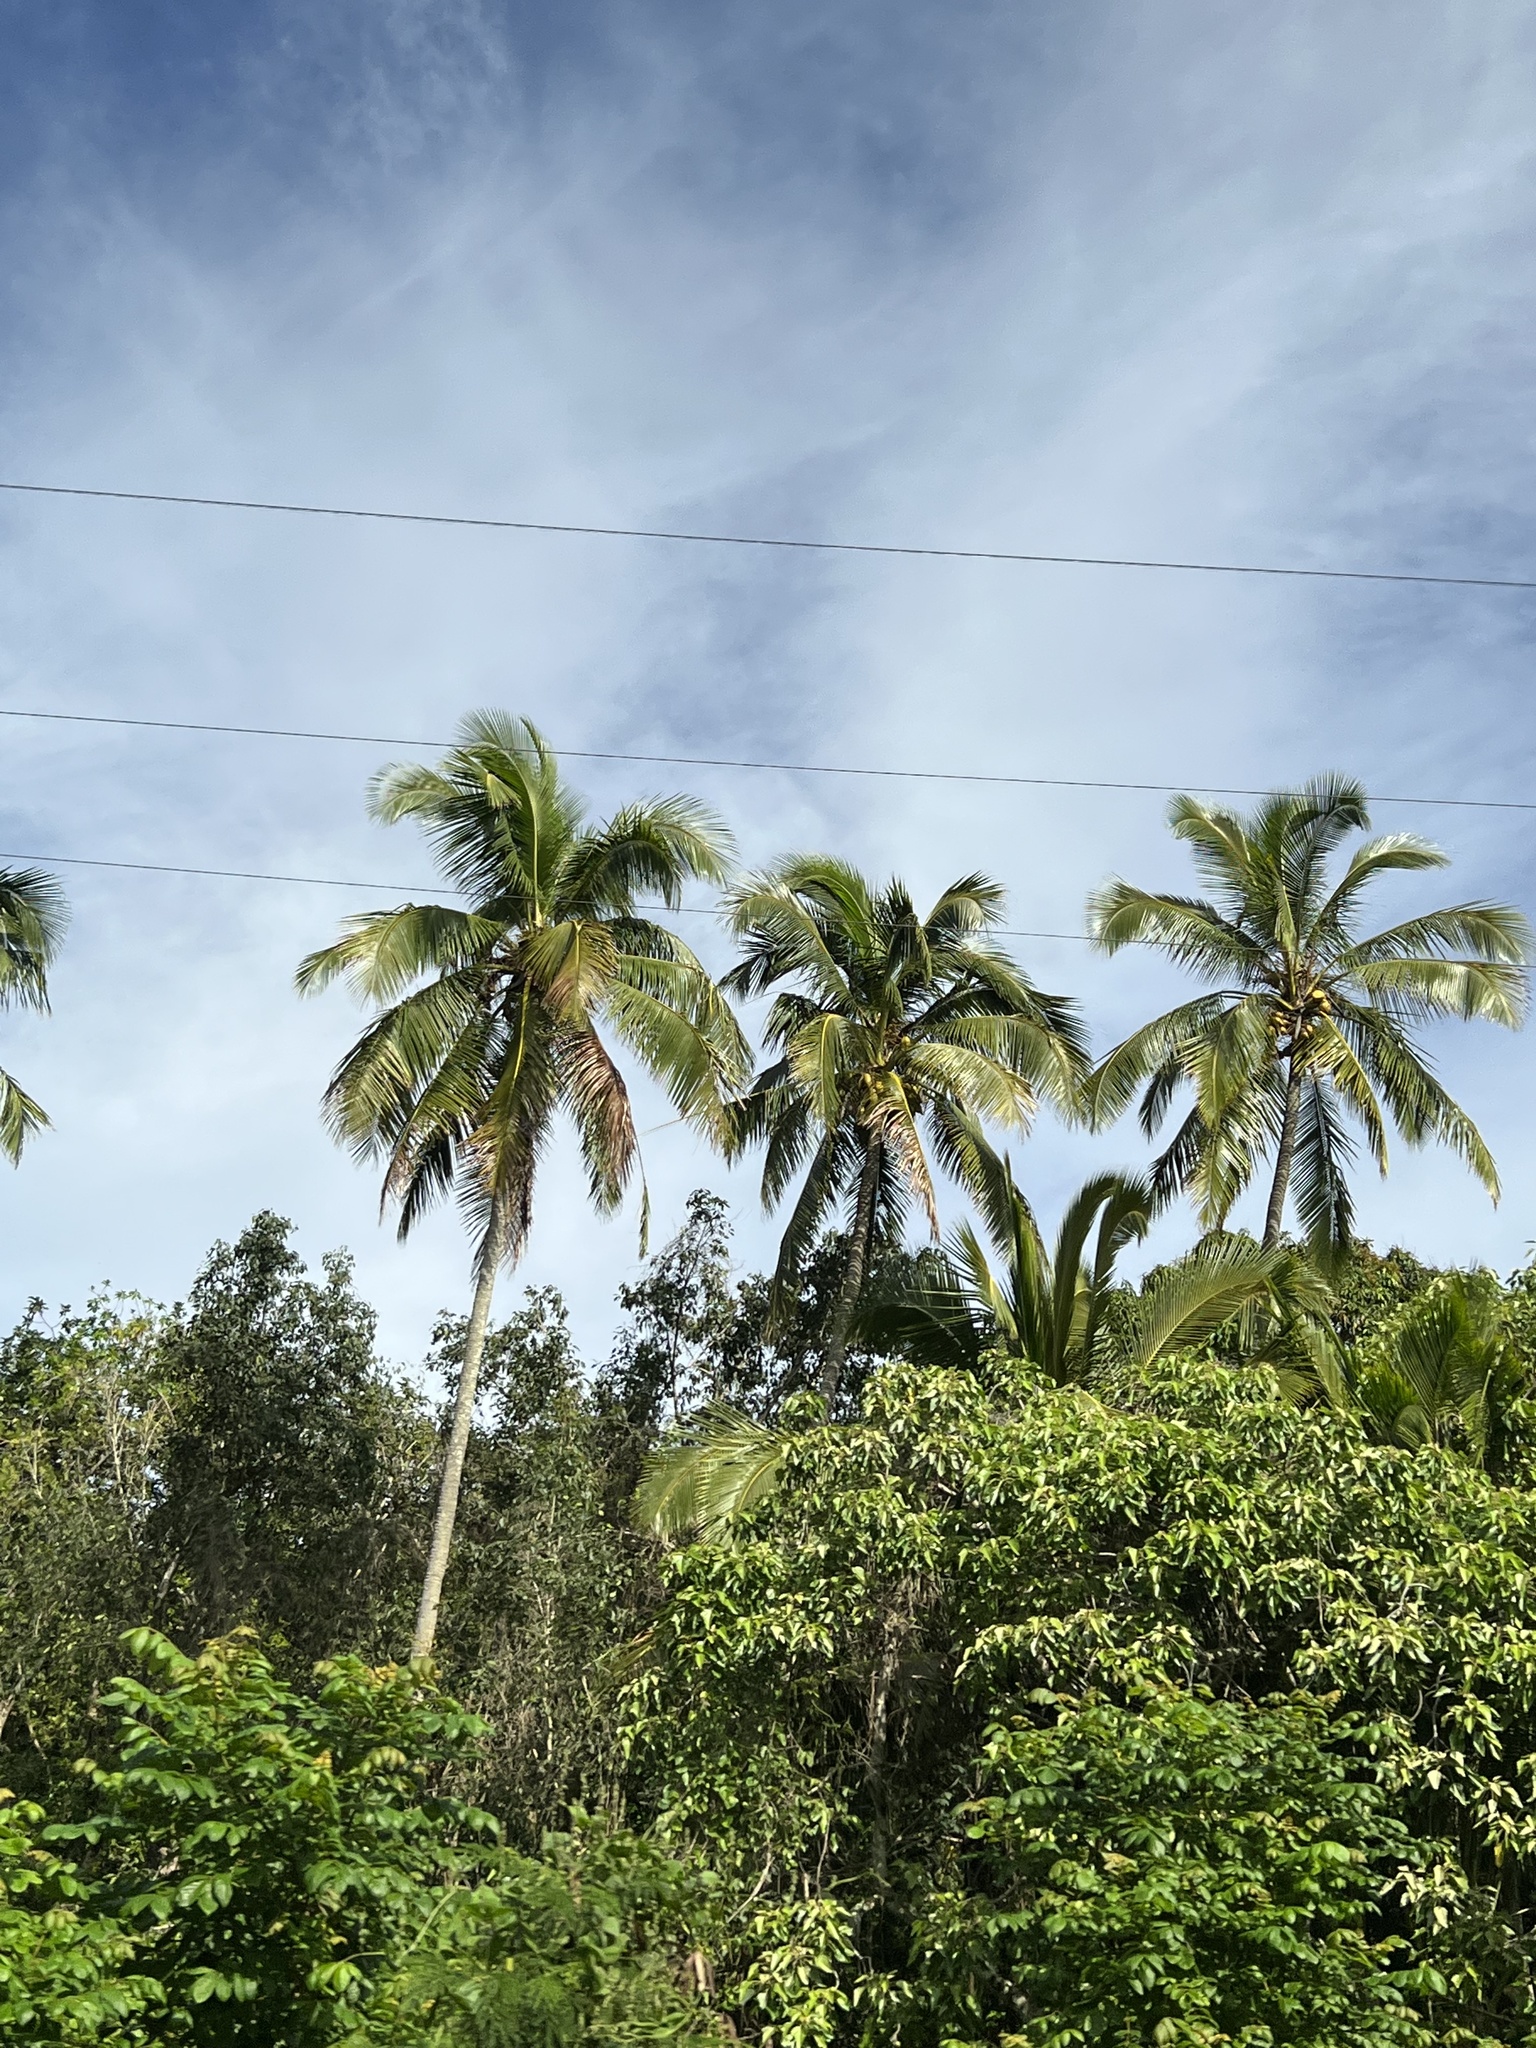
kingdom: Plantae
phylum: Tracheophyta
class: Liliopsida
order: Arecales
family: Arecaceae
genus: Cocos
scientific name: Cocos nucifera
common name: Coconut palm
